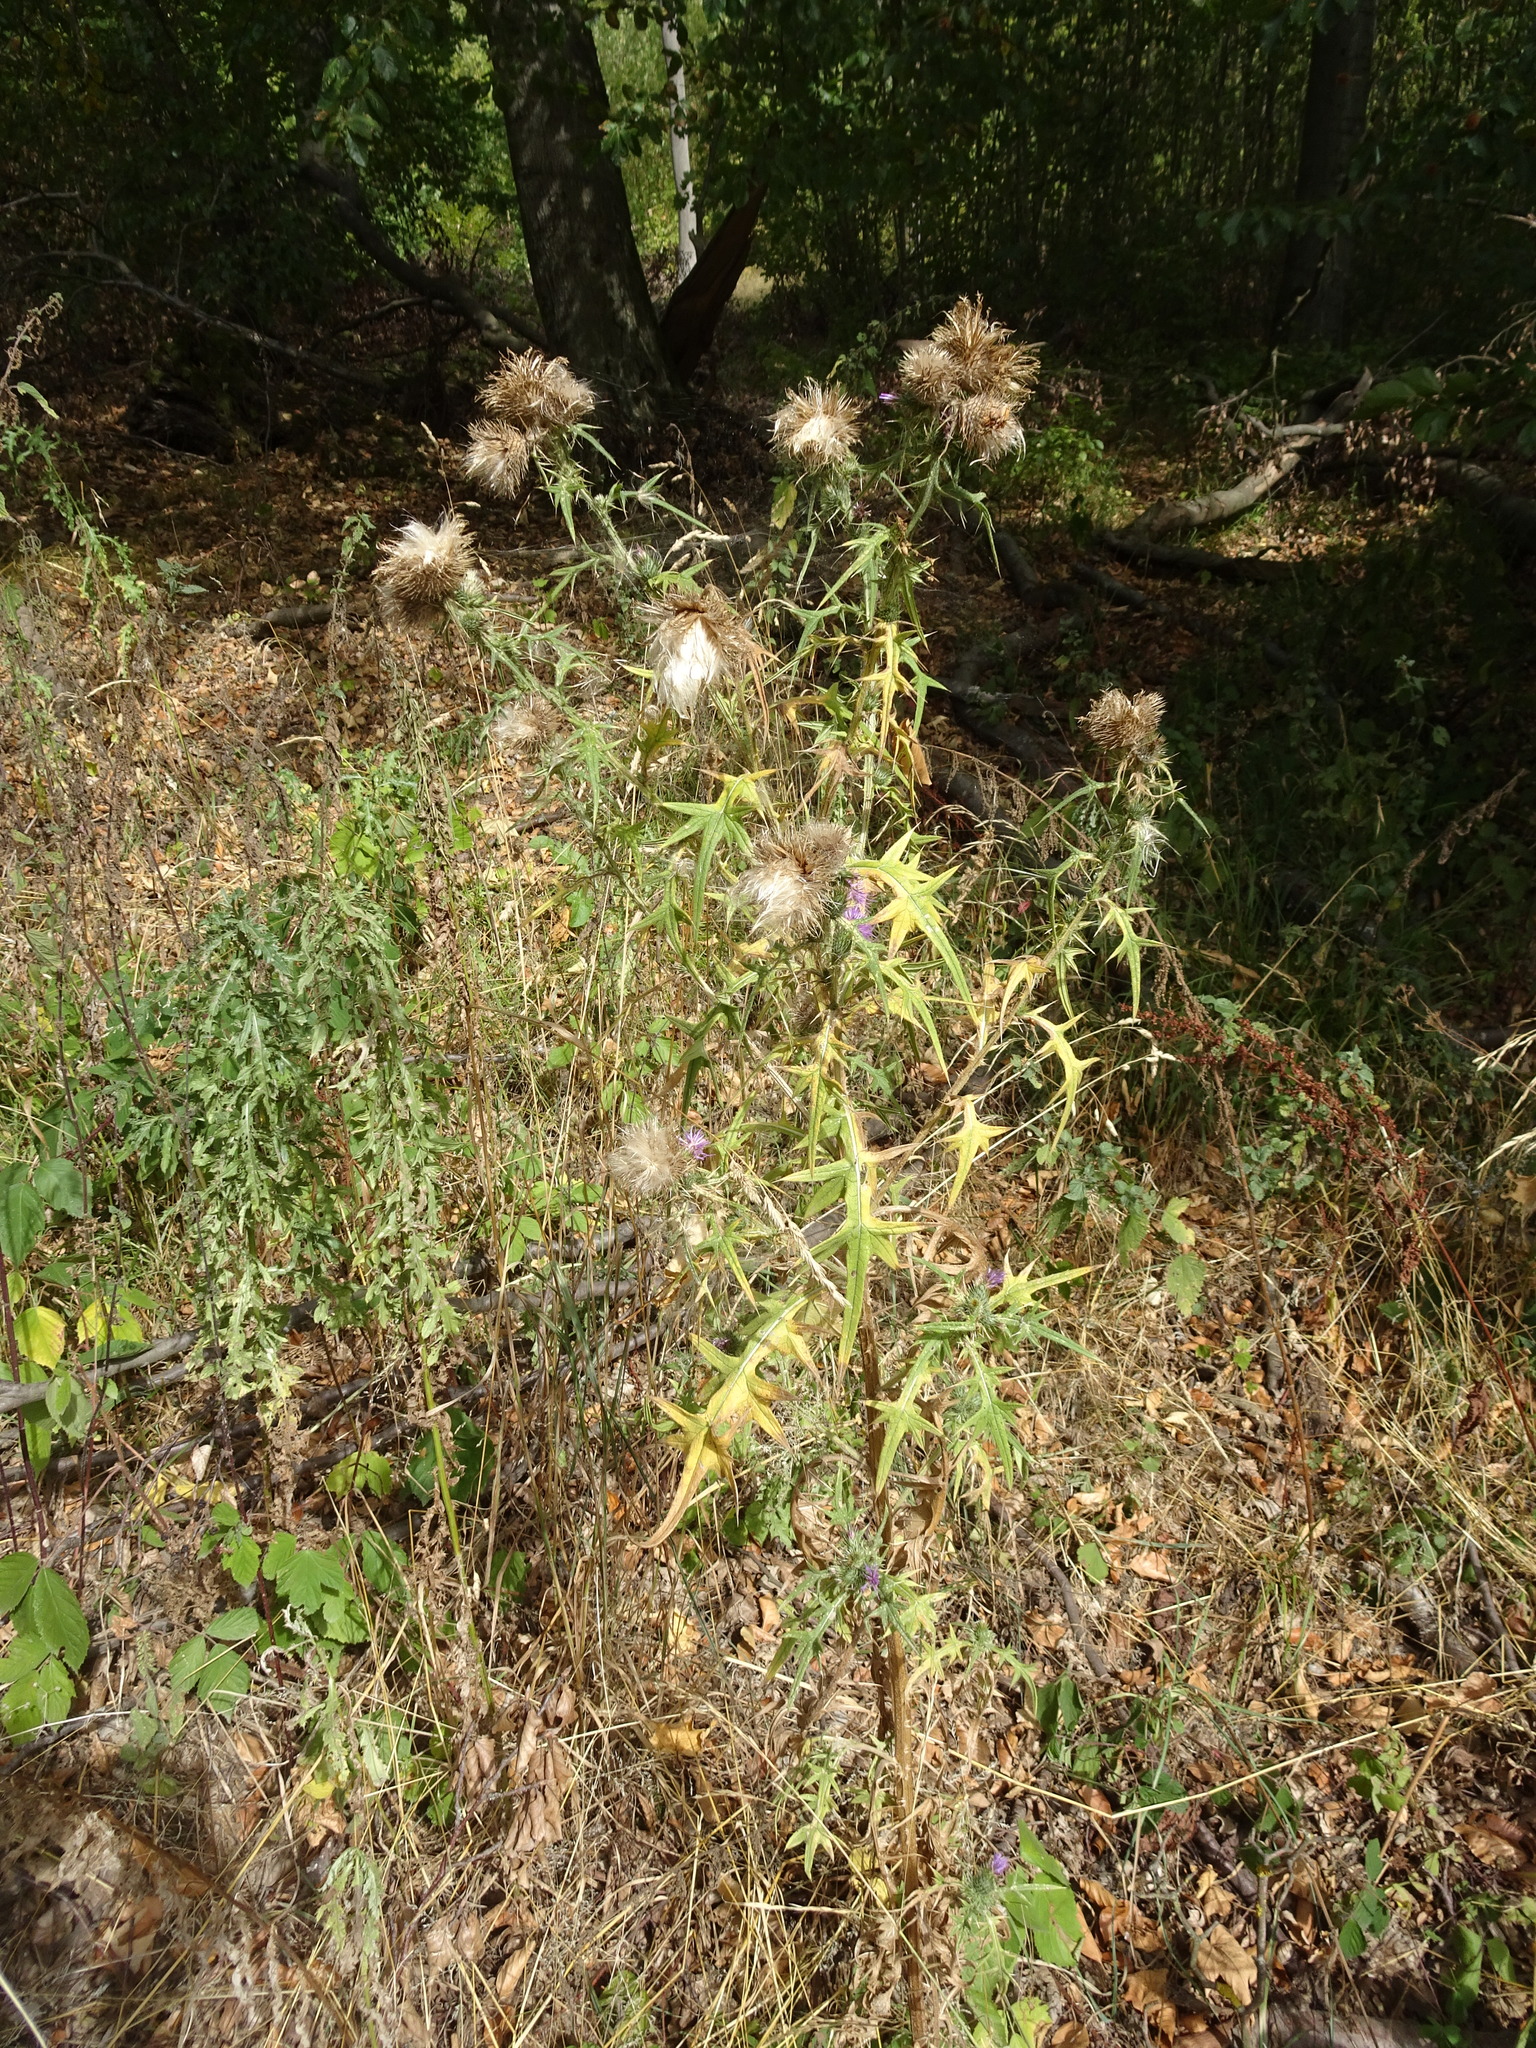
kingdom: Plantae
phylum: Tracheophyta
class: Magnoliopsida
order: Asterales
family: Asteraceae
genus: Cirsium
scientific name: Cirsium vulgare
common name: Bull thistle
